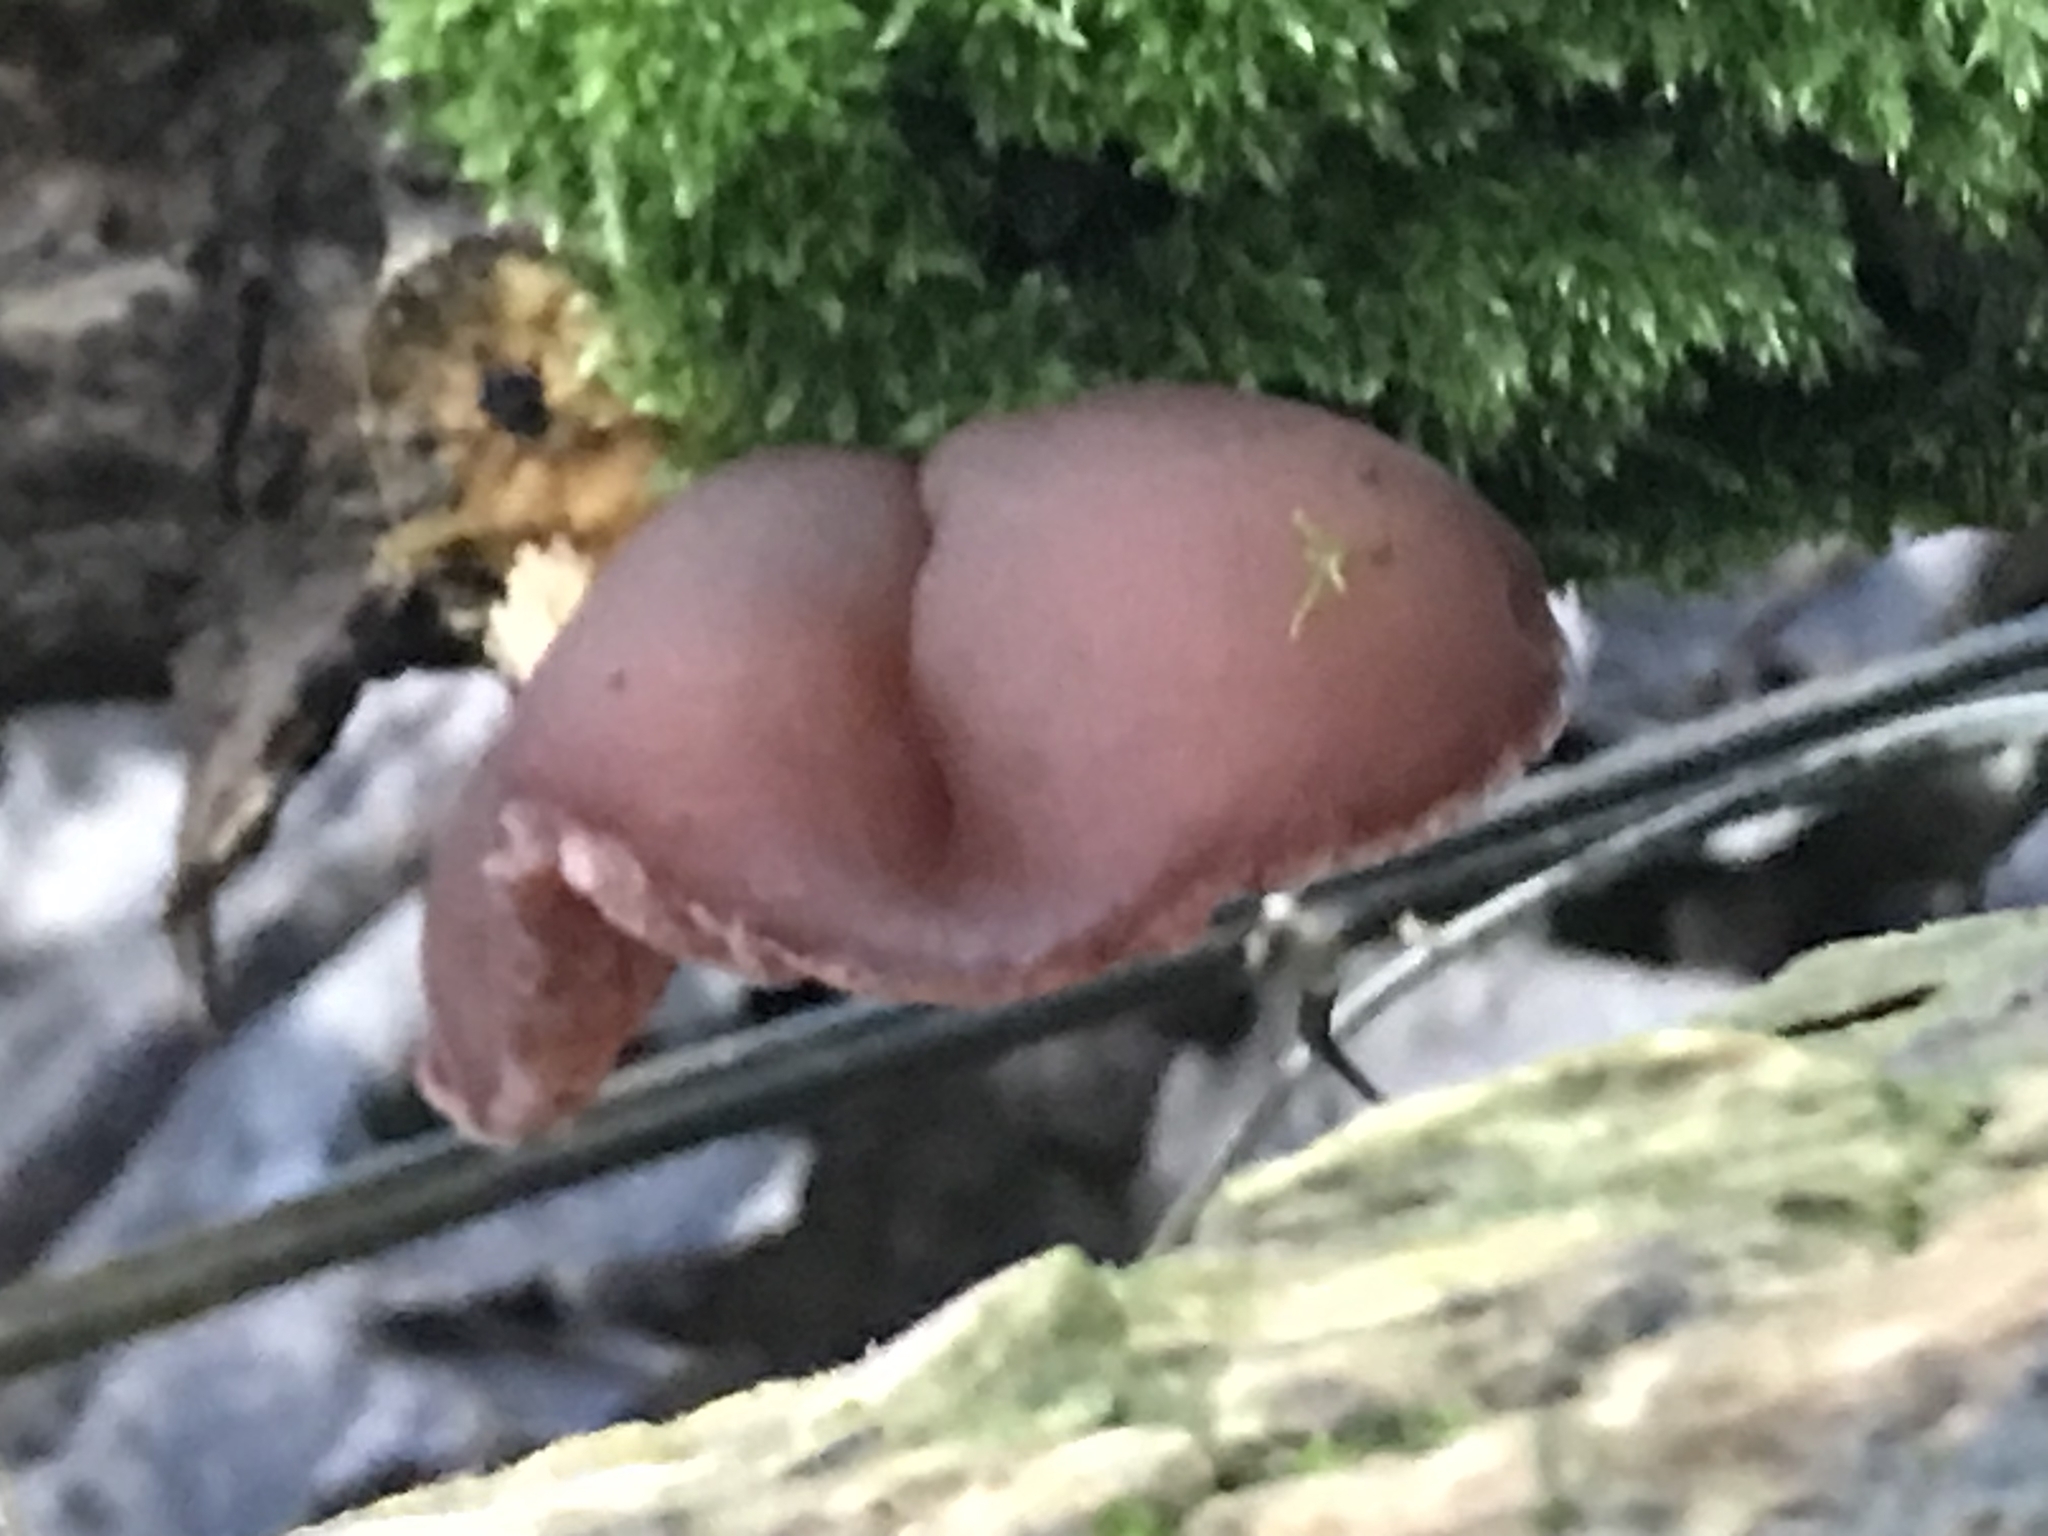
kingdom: Fungi
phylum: Basidiomycota
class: Agaricomycetes
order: Auriculariales
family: Auriculariaceae
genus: Auricularia
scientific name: Auricularia auricula-judae
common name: Jelly ear
